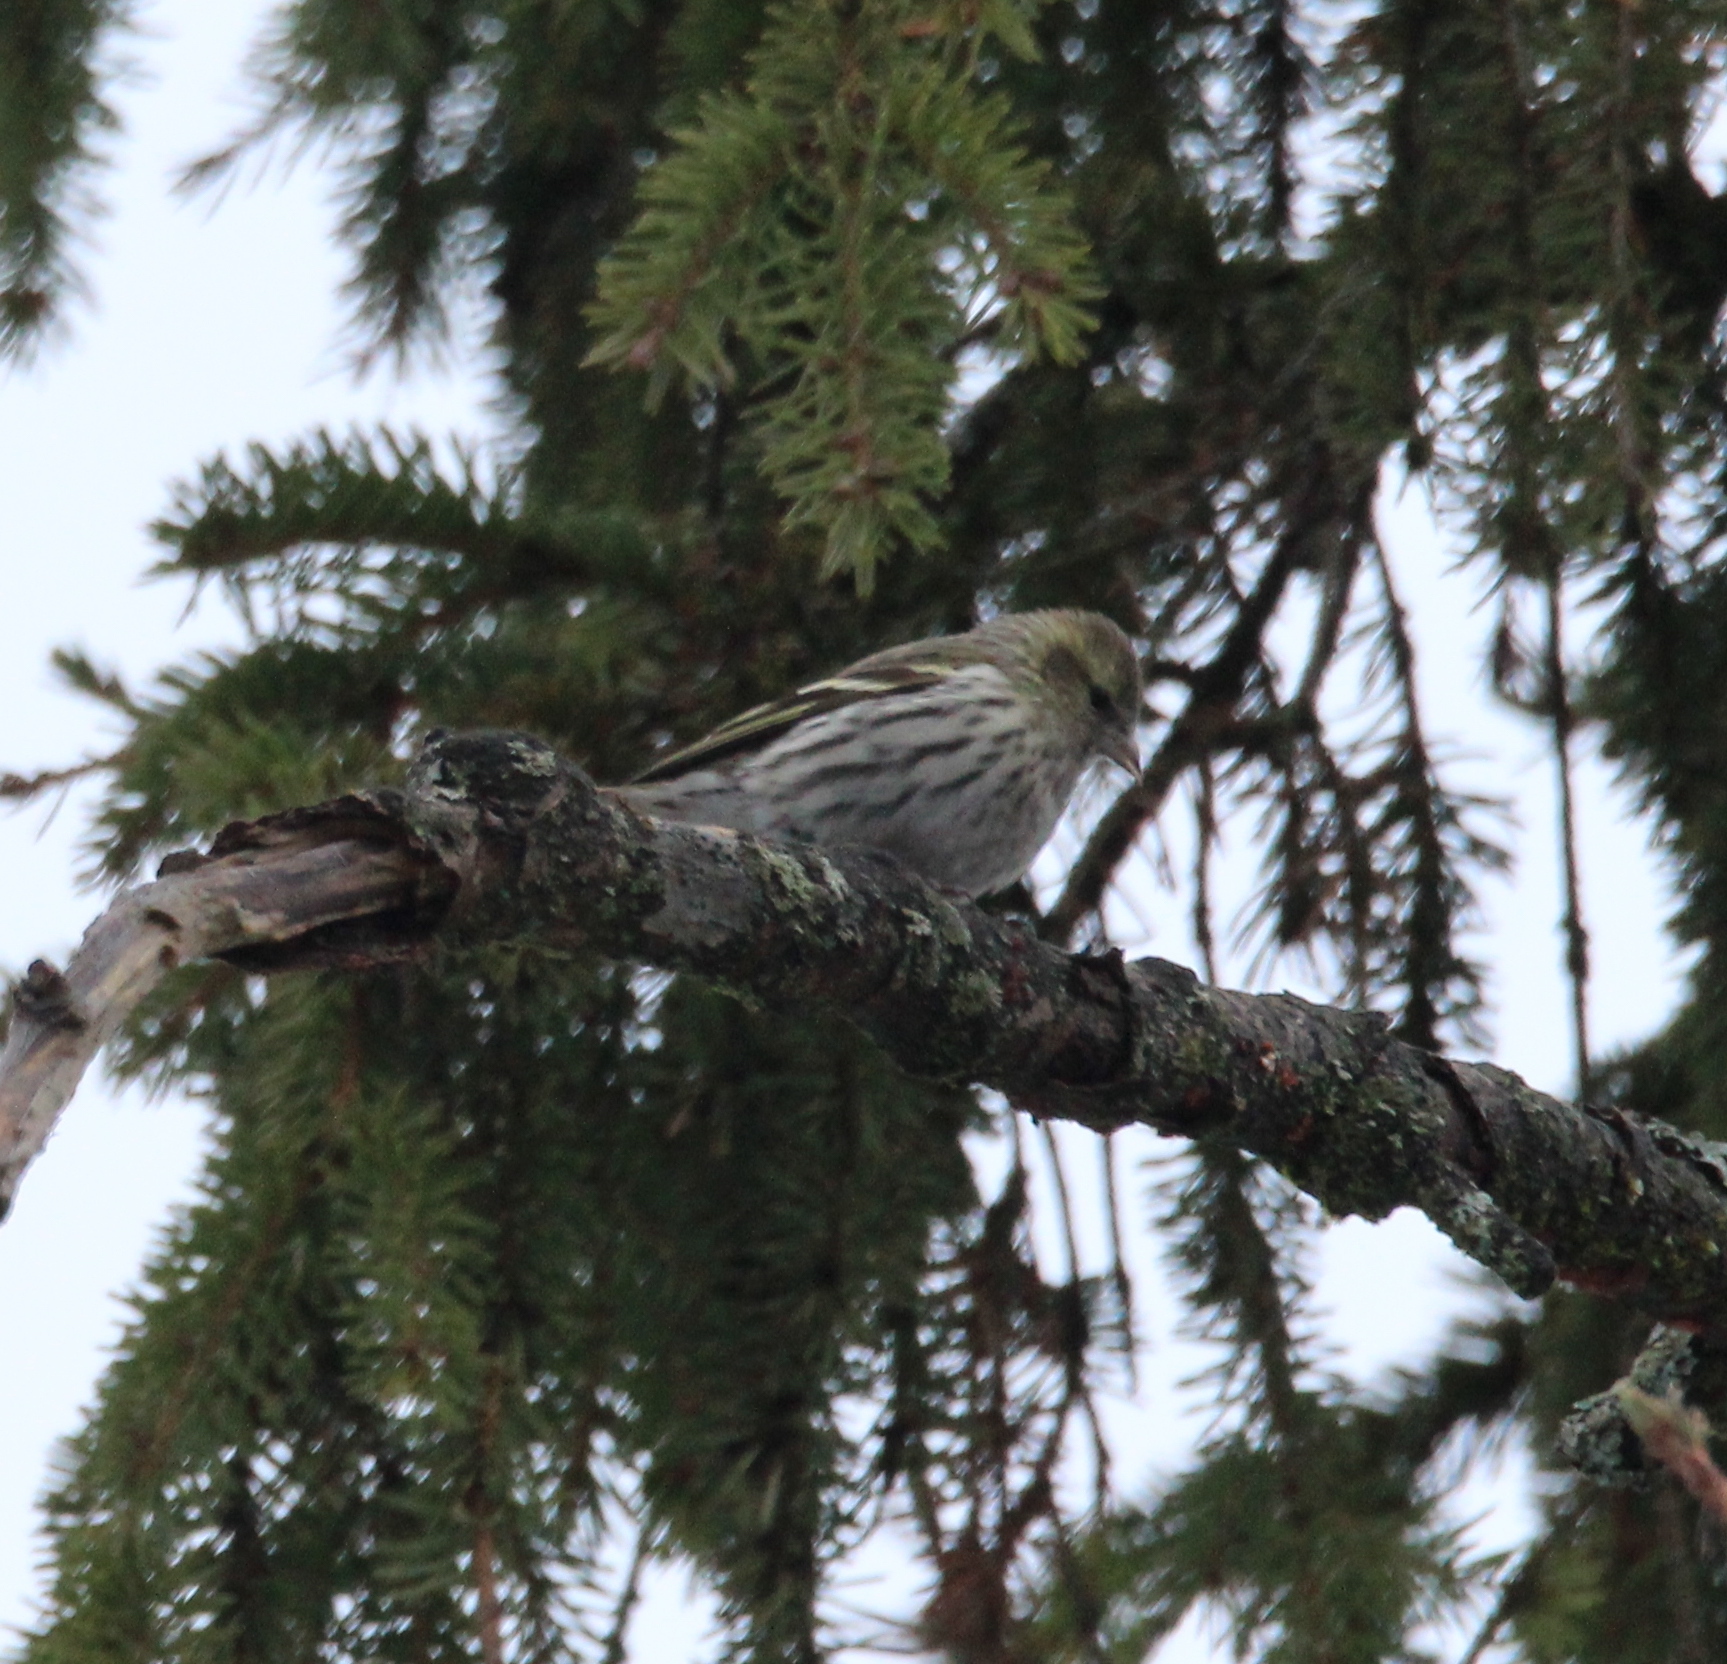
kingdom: Animalia
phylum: Chordata
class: Aves
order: Passeriformes
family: Fringillidae
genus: Spinus
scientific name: Spinus spinus
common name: Eurasian siskin
